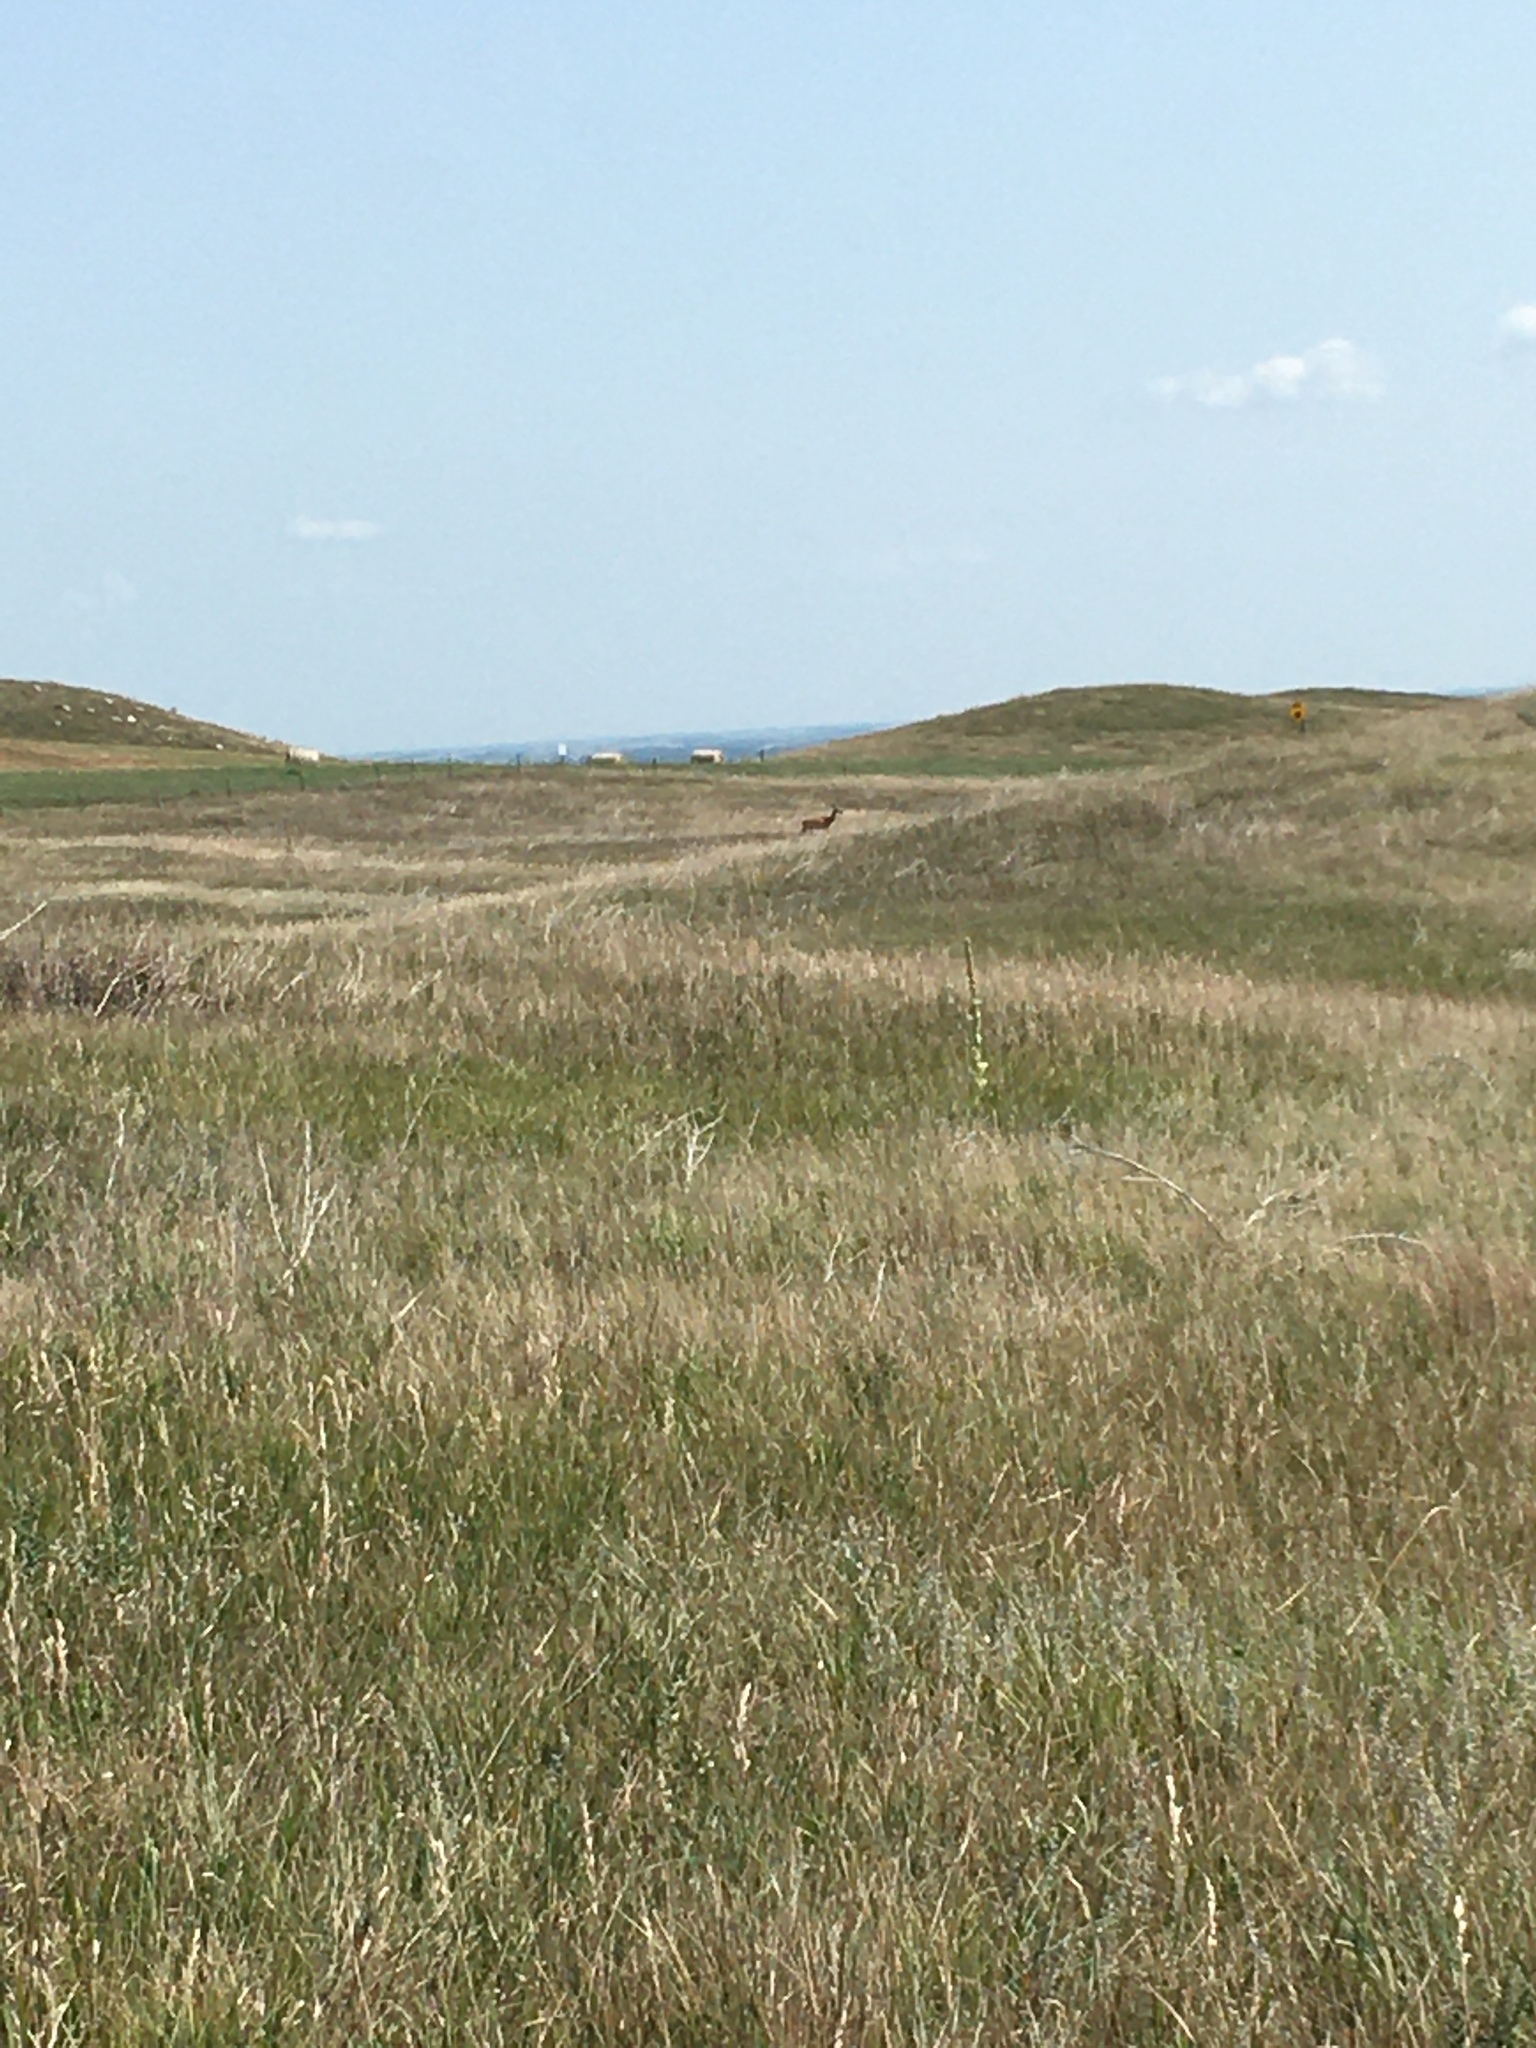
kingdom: Animalia
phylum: Chordata
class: Mammalia
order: Artiodactyla
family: Cervidae
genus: Odocoileus
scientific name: Odocoileus virginianus
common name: White-tailed deer
